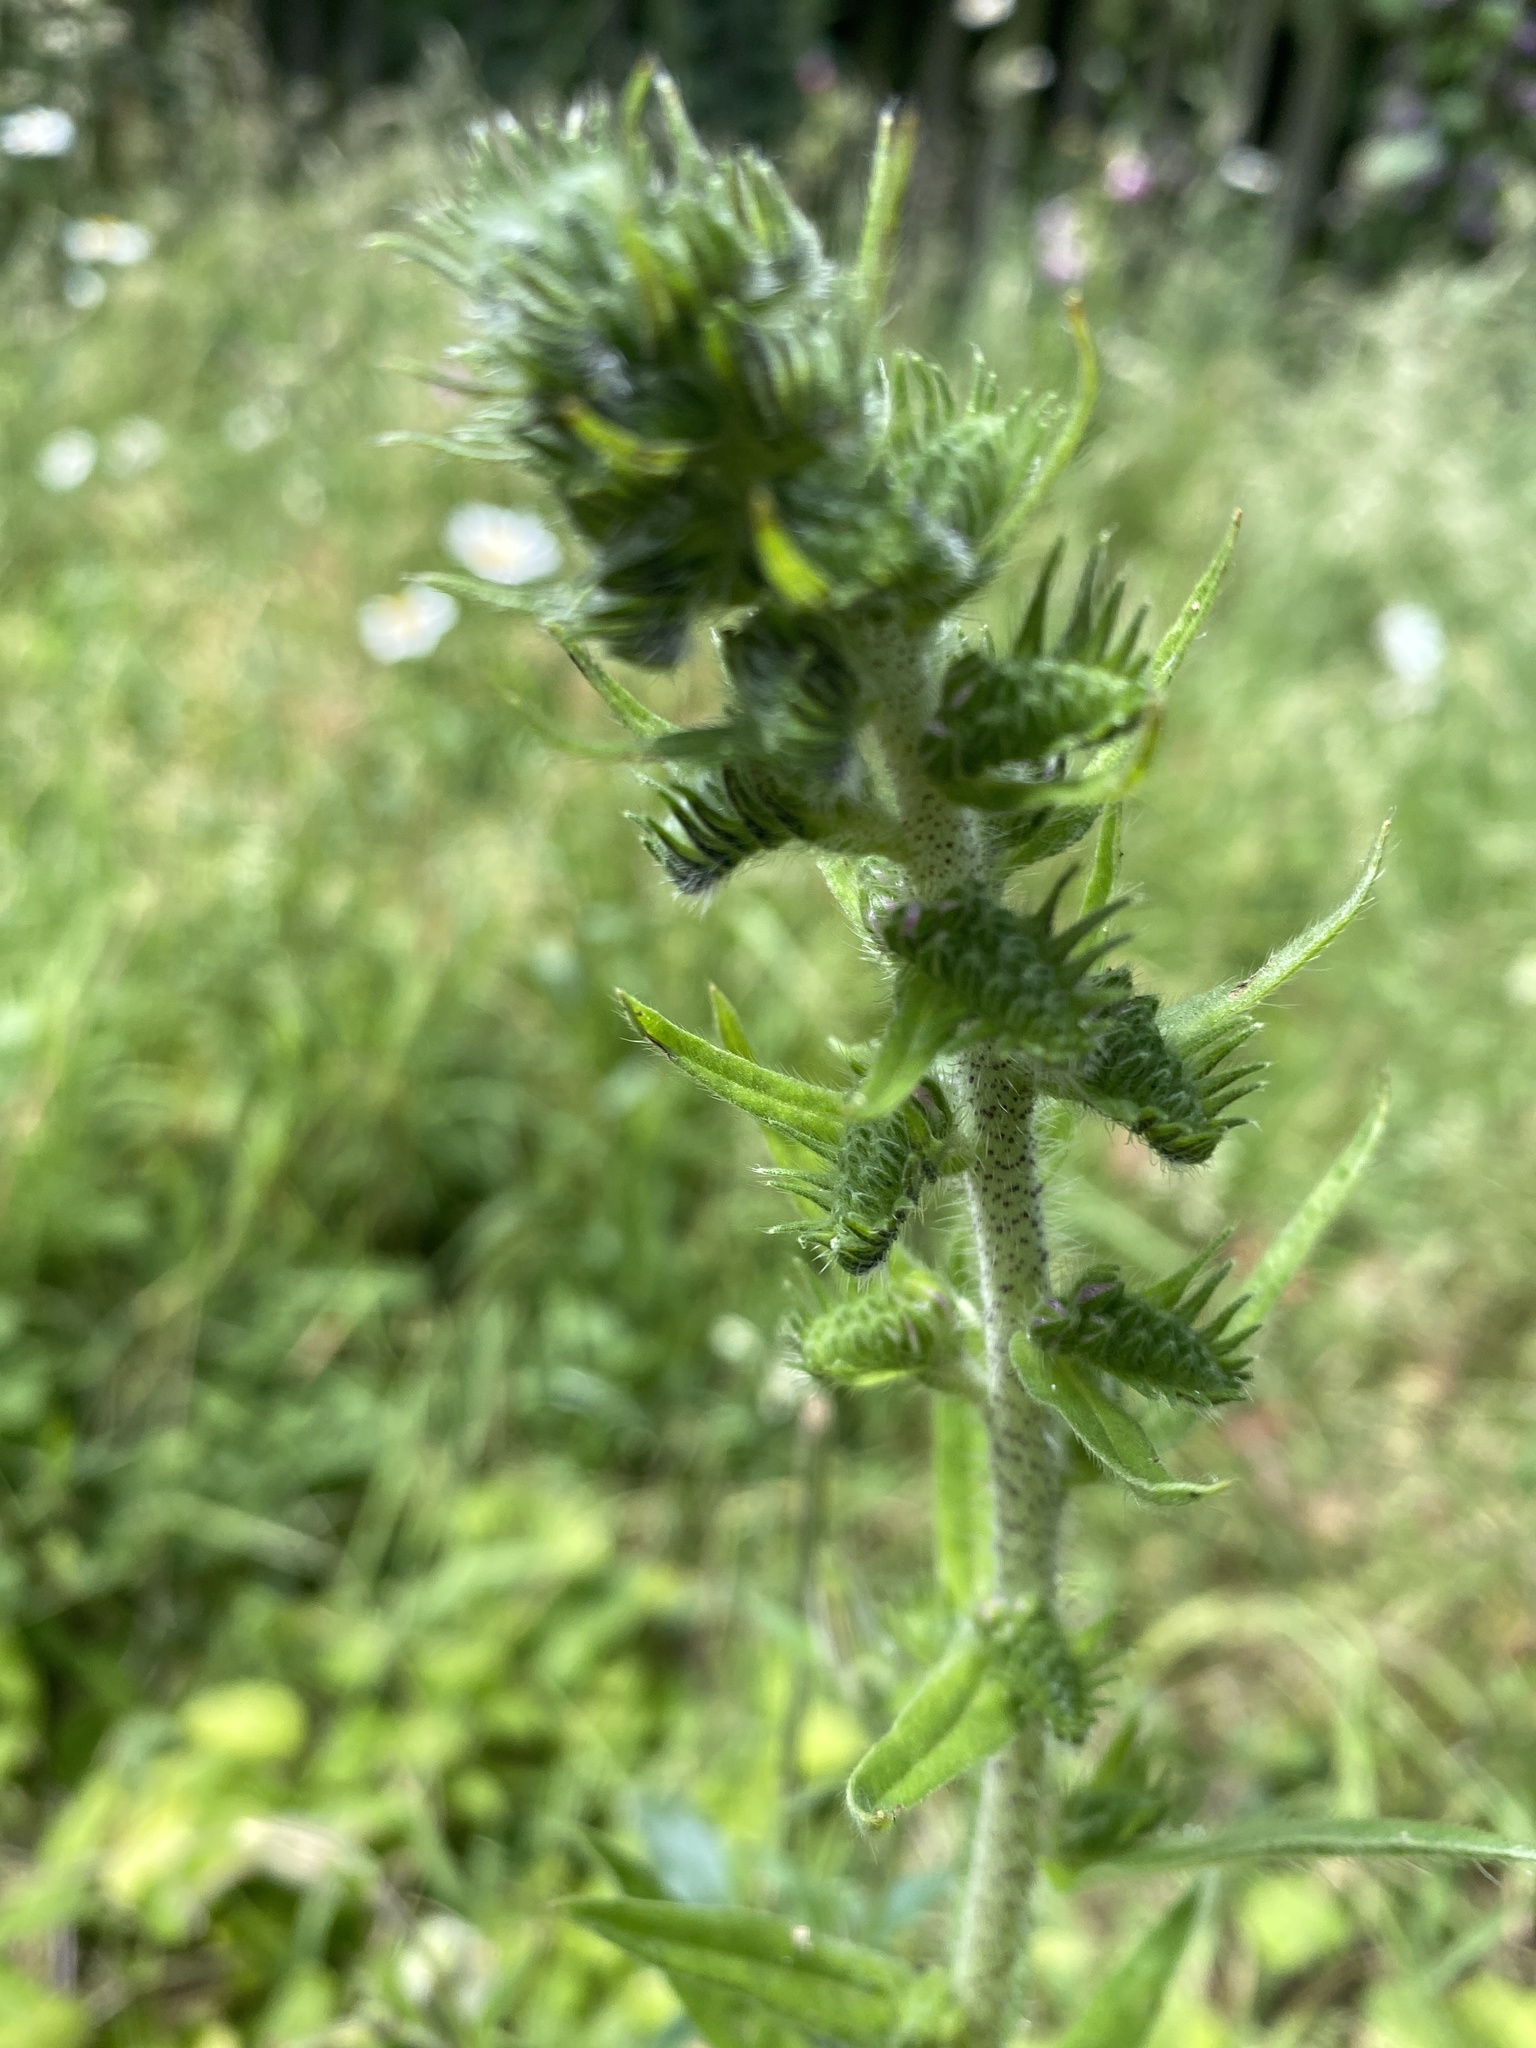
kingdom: Plantae
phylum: Tracheophyta
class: Magnoliopsida
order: Boraginales
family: Boraginaceae
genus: Echium
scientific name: Echium vulgare
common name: Common viper's bugloss
